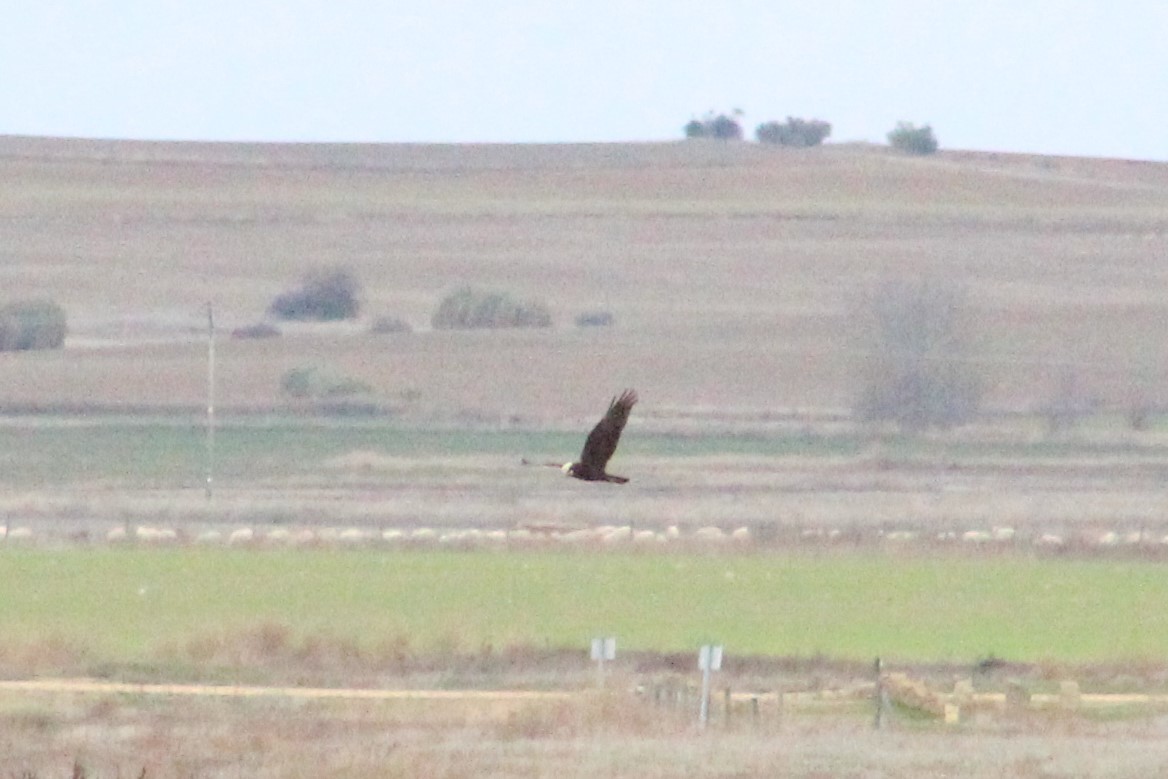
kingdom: Animalia
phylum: Chordata
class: Aves
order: Accipitriformes
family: Accipitridae
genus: Circus
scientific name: Circus aeruginosus
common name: Western marsh harrier
